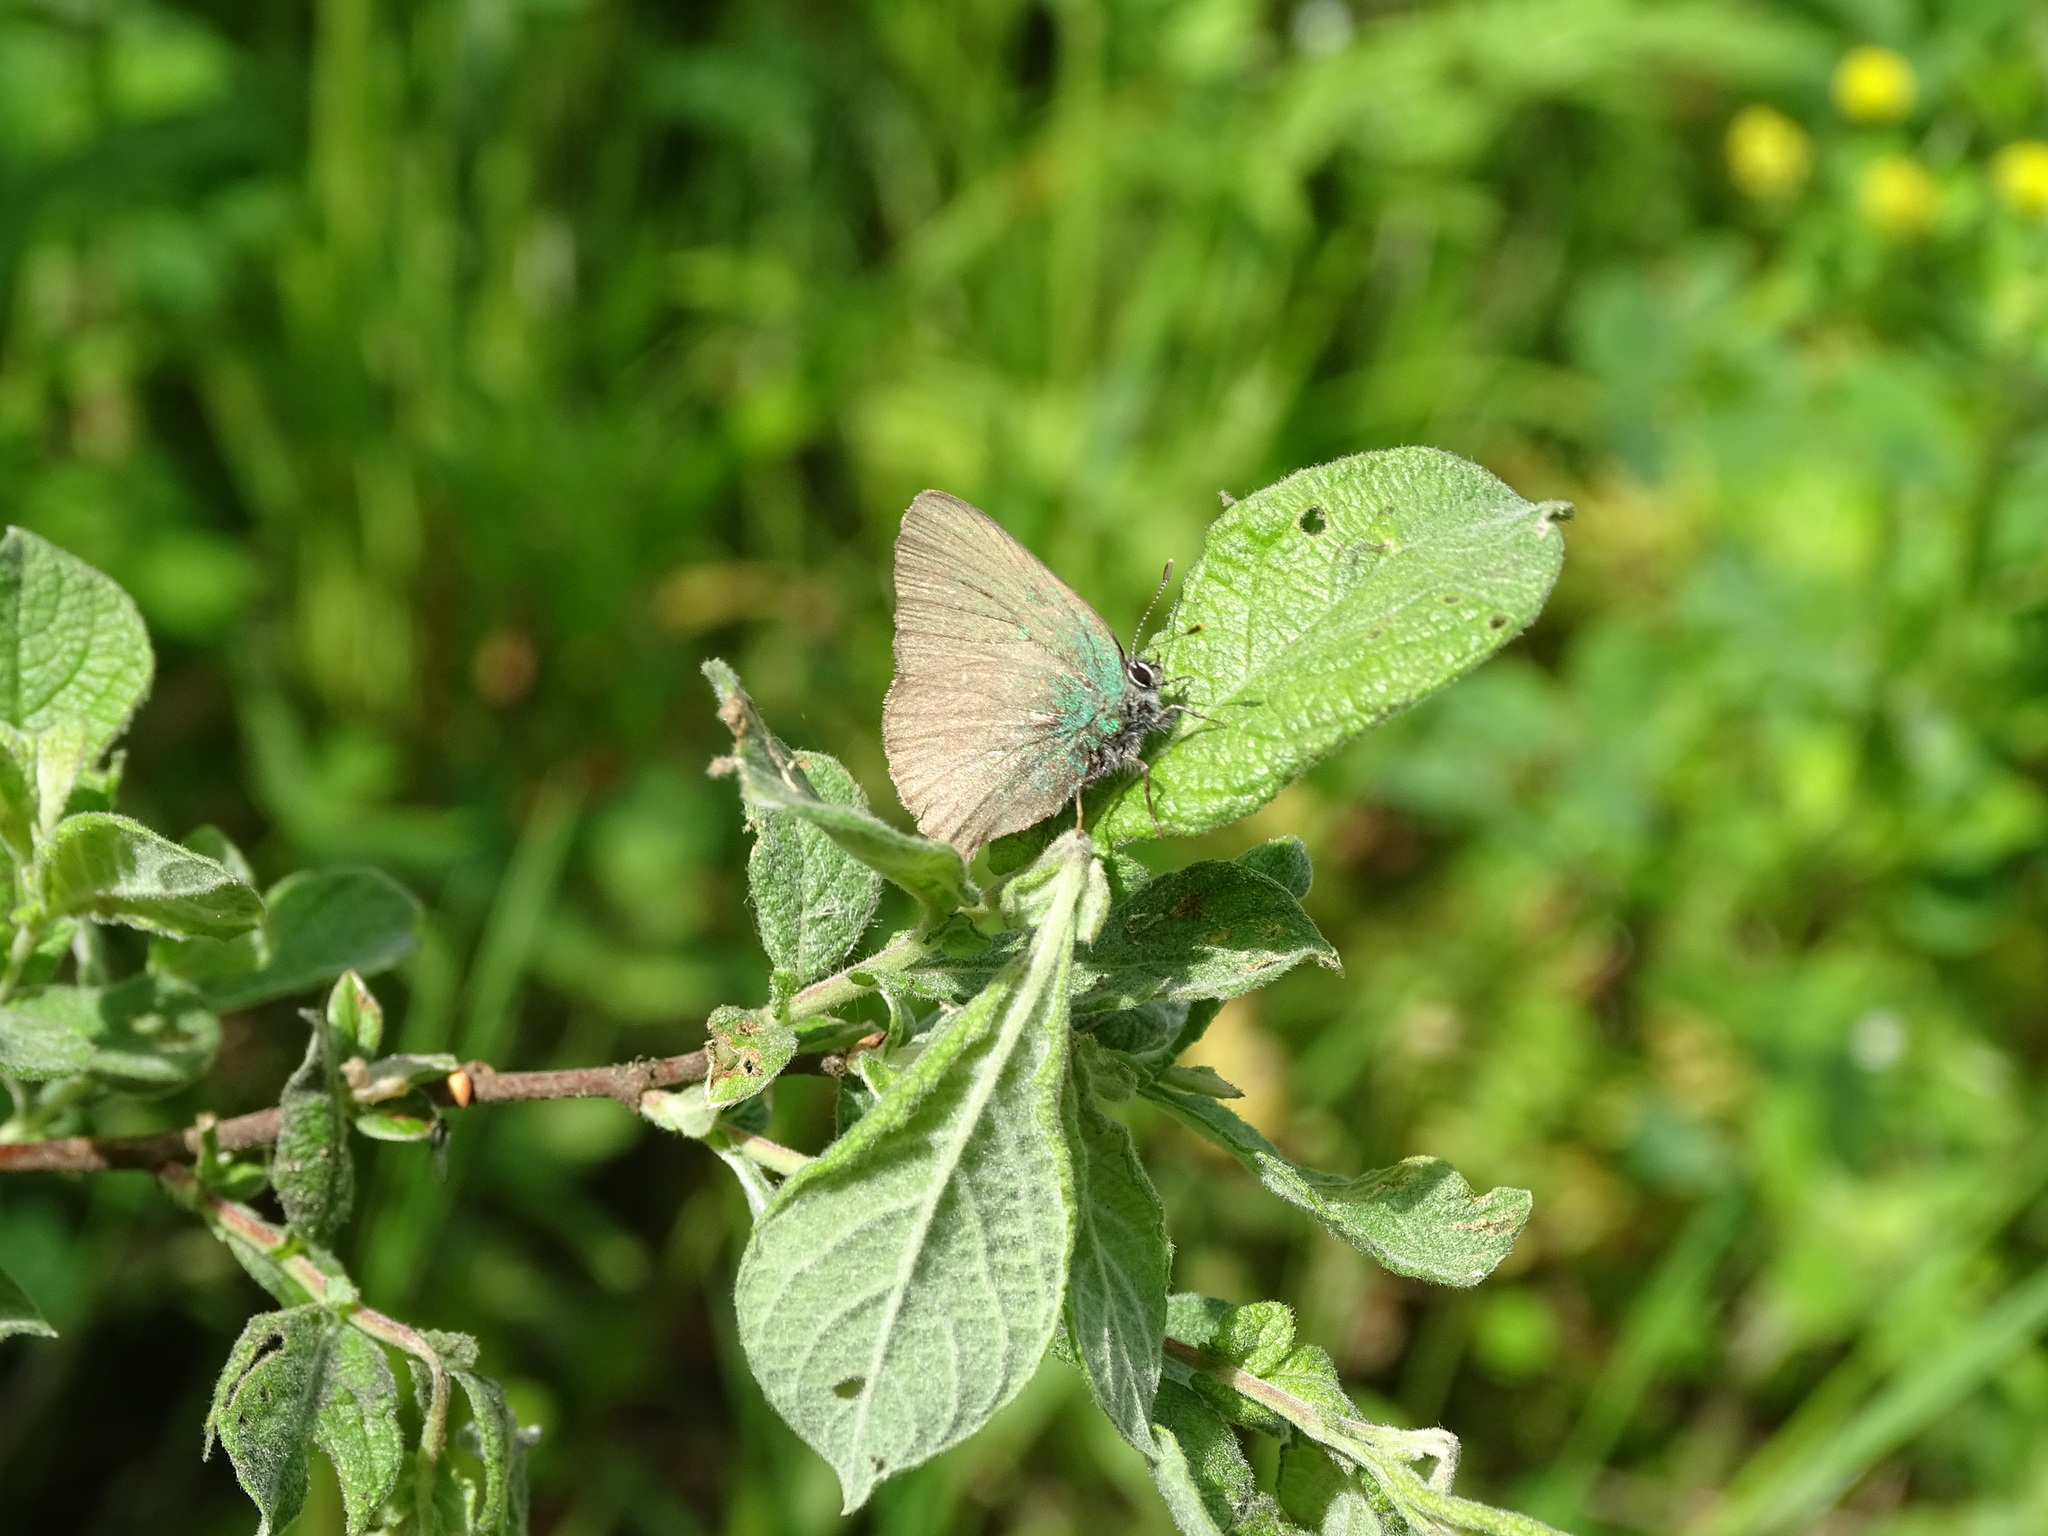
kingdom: Animalia
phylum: Arthropoda
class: Insecta
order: Lepidoptera
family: Lycaenidae
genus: Callophrys
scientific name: Callophrys rubi
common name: Green hairstreak
